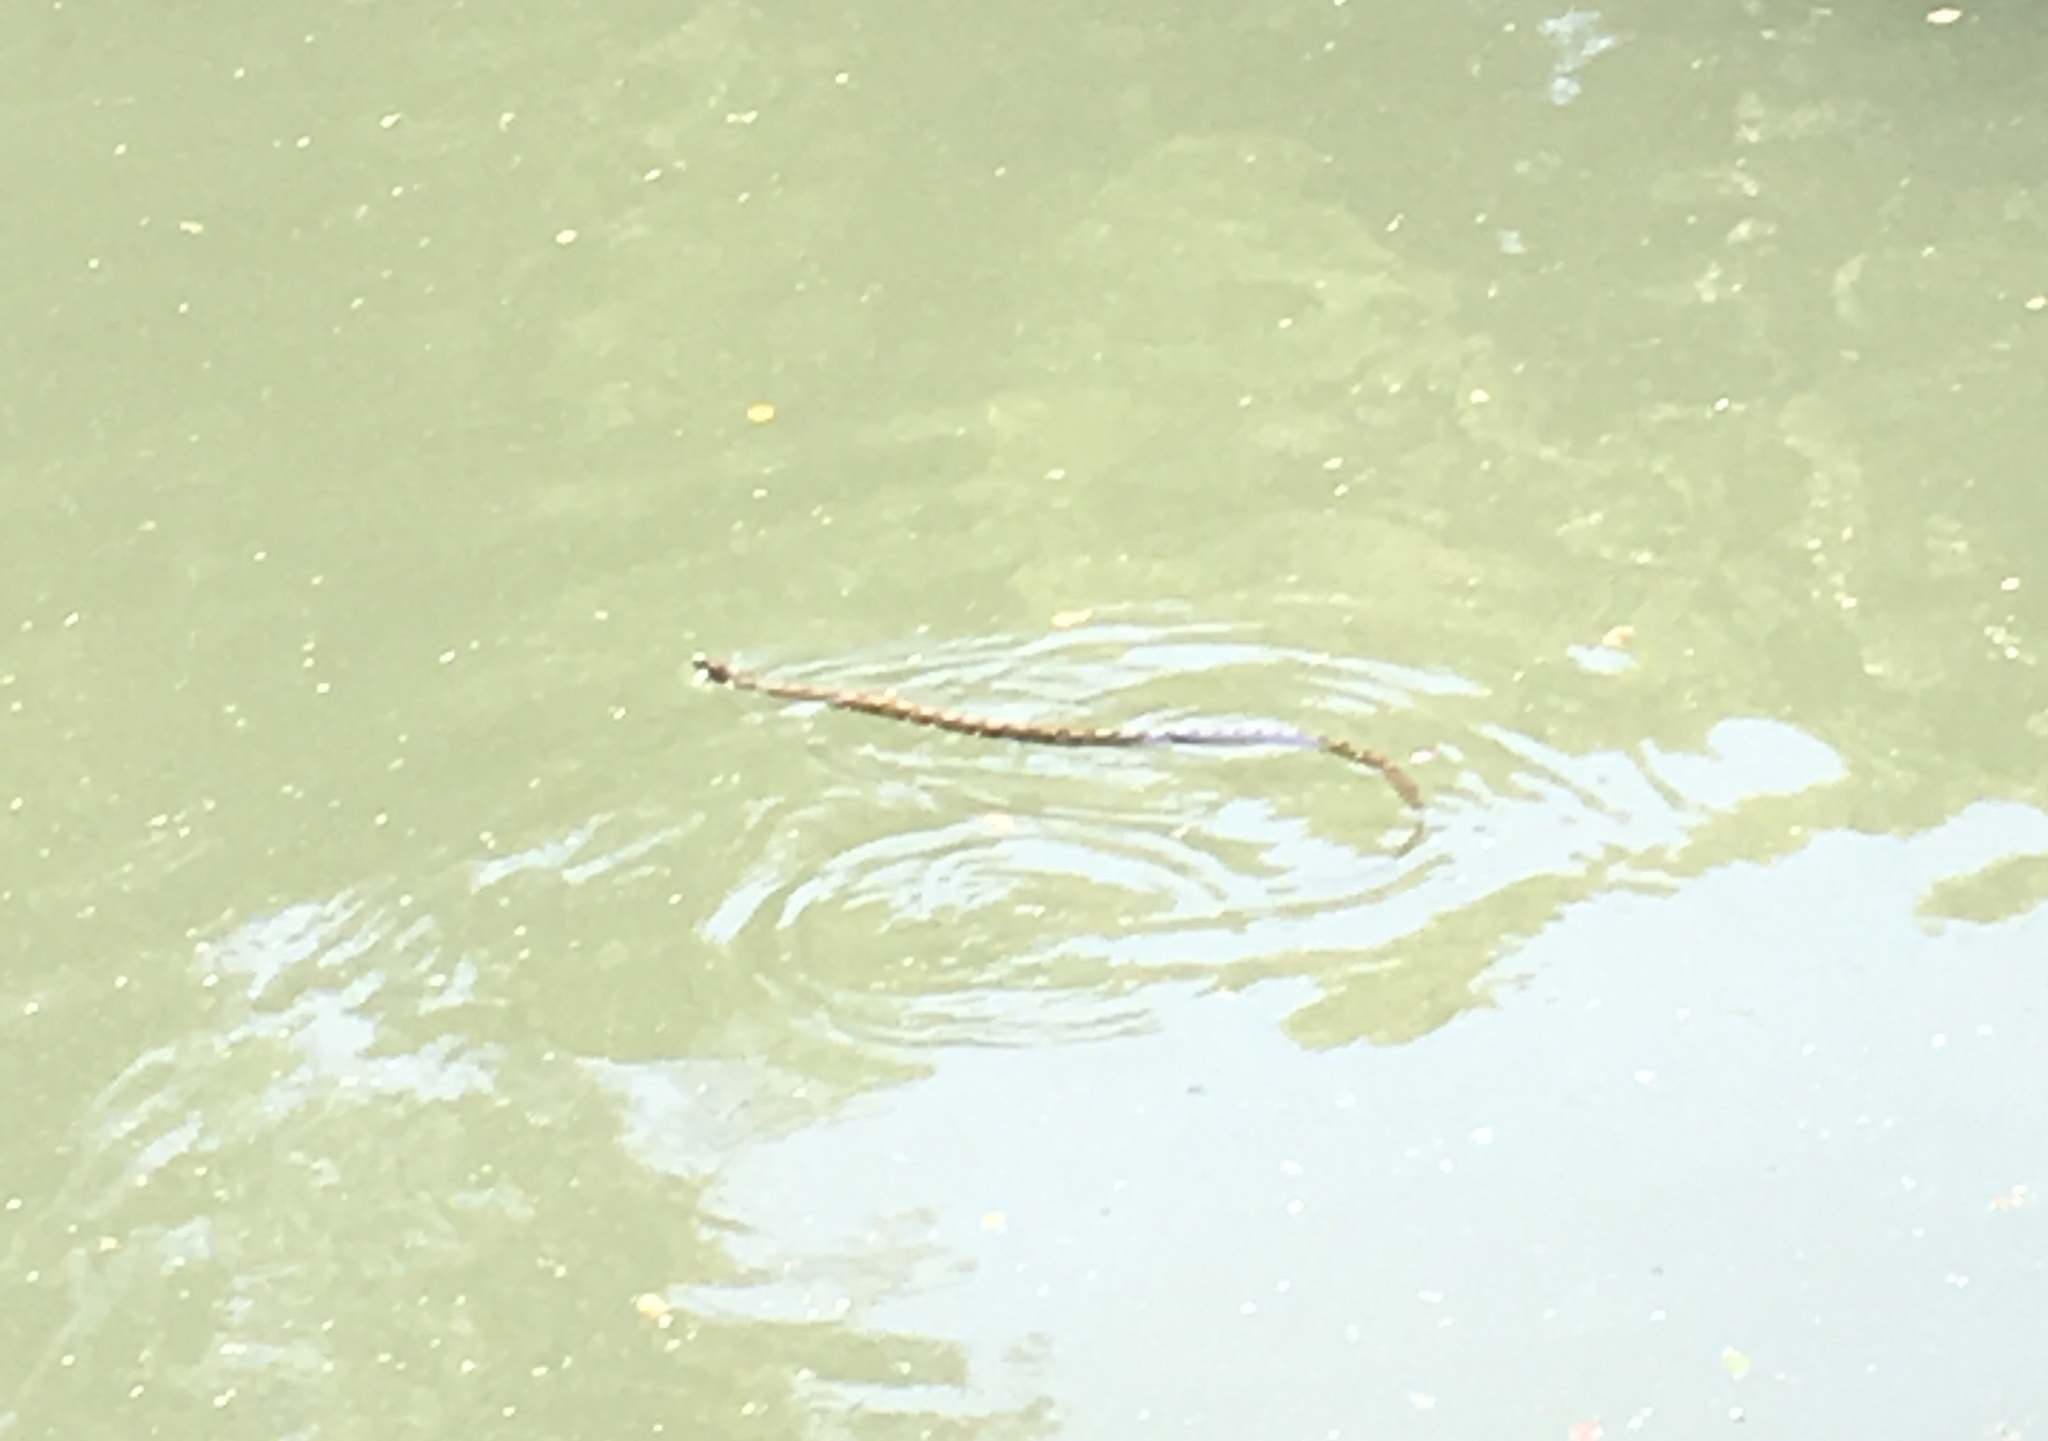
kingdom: Animalia
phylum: Chordata
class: Squamata
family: Colubridae
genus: Nerodia
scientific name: Nerodia rhombifer
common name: Diamondback water snake
